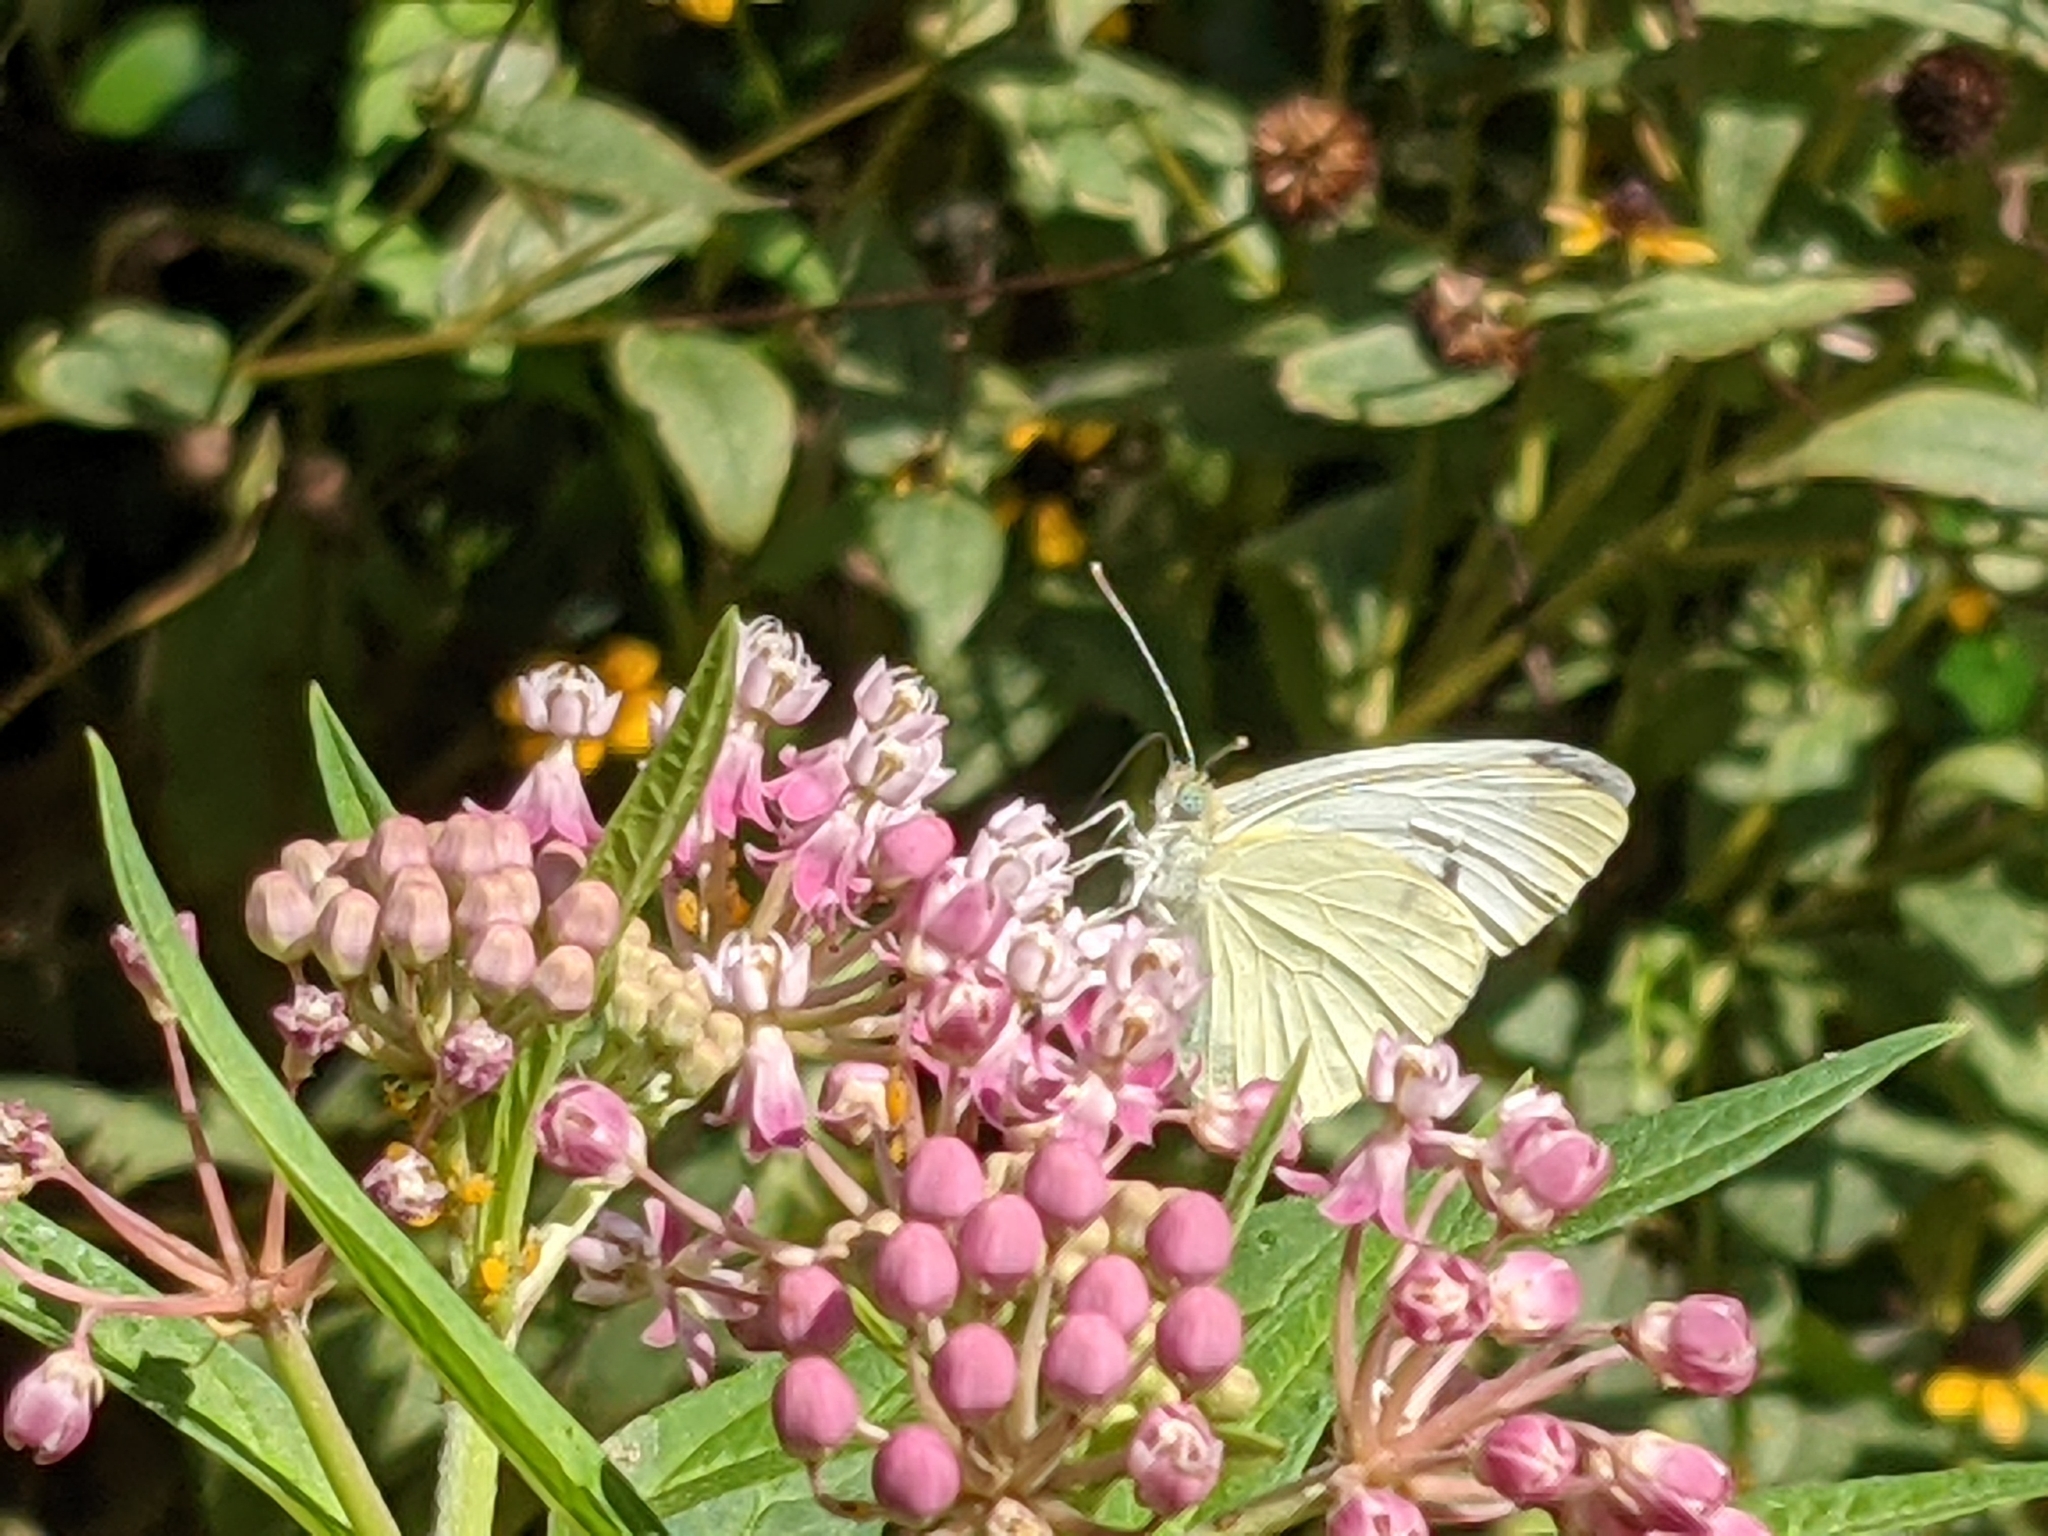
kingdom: Animalia
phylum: Arthropoda
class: Insecta
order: Lepidoptera
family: Pieridae
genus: Pieris
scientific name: Pieris rapae
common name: Small white
